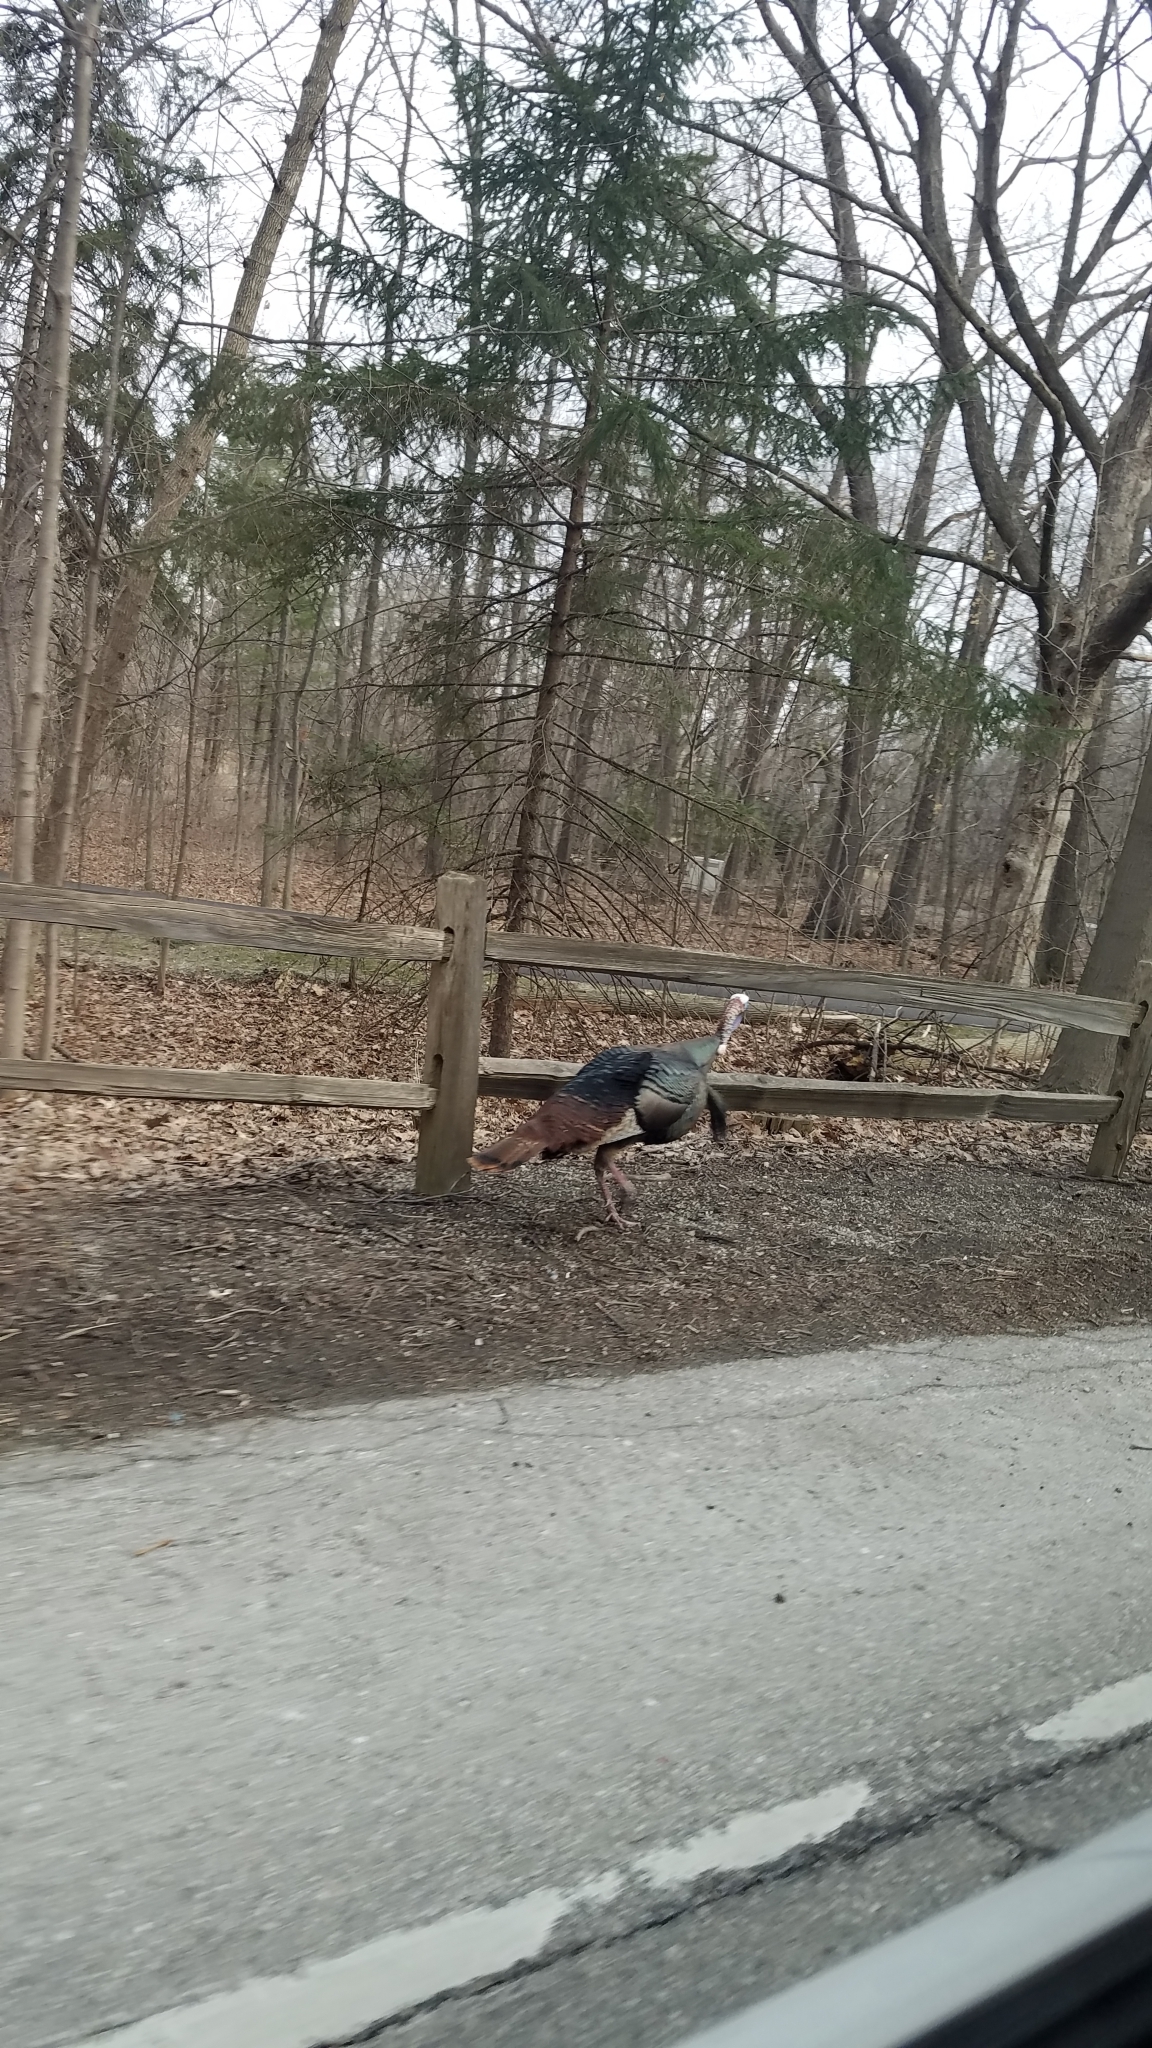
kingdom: Animalia
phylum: Chordata
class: Aves
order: Galliformes
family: Phasianidae
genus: Meleagris
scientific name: Meleagris gallopavo
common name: Wild turkey
